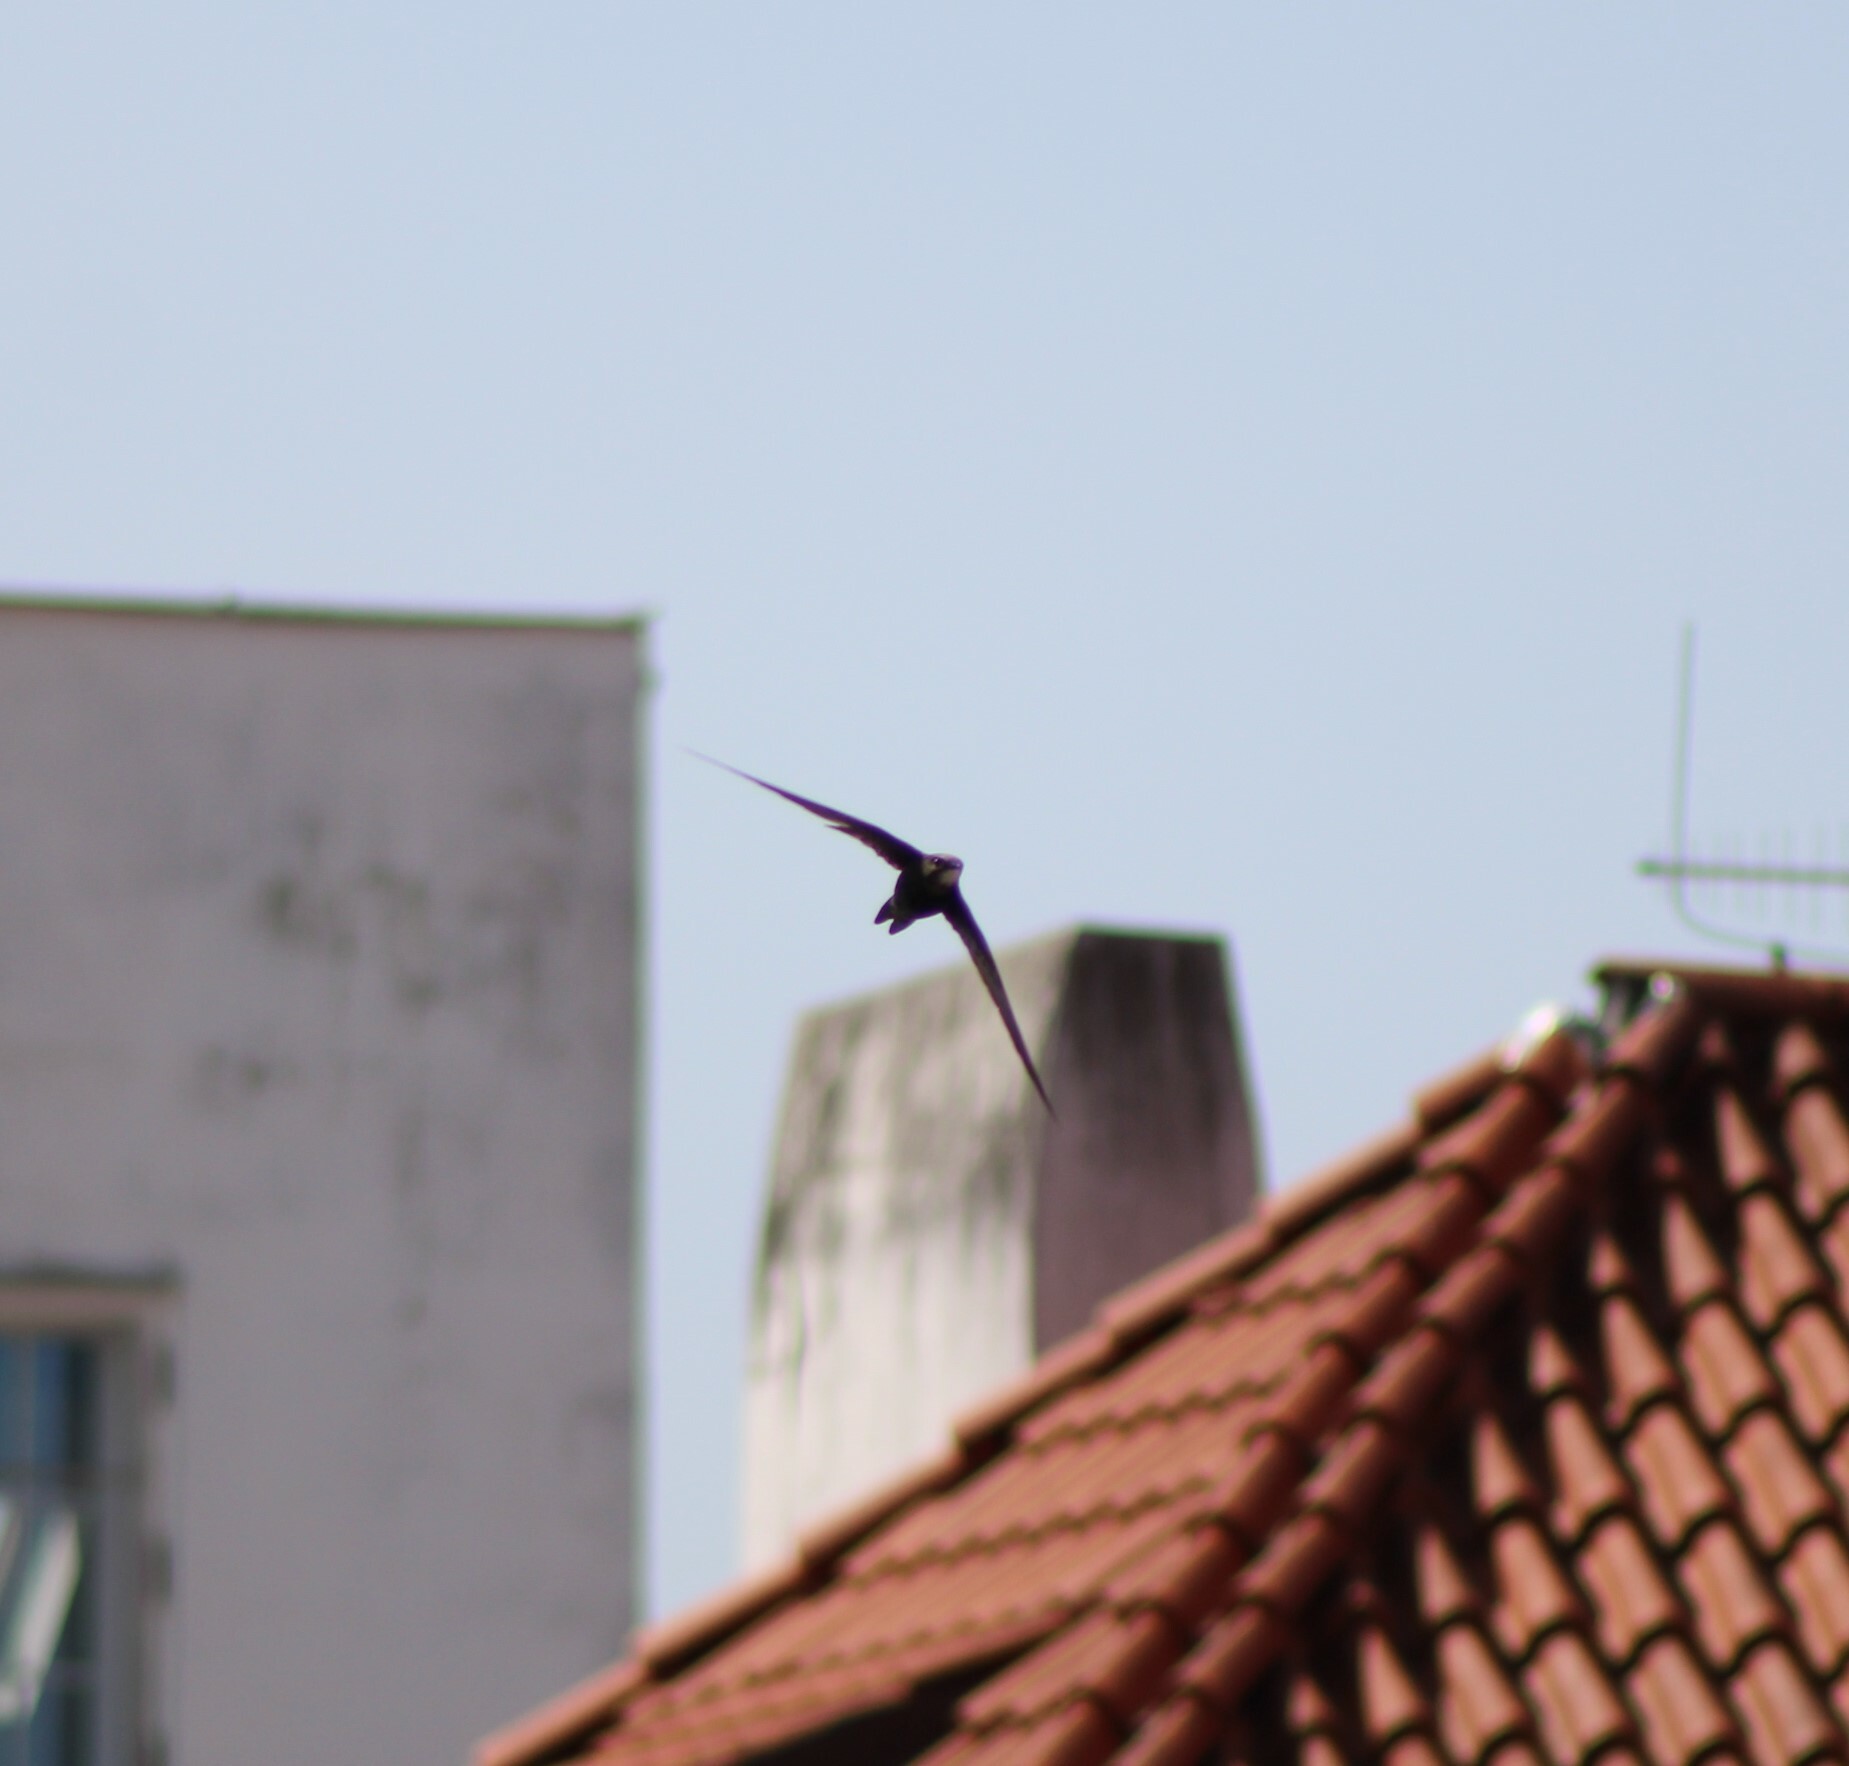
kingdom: Animalia
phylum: Chordata
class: Aves
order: Apodiformes
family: Apodidae
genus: Apus
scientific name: Apus apus
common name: Common swift
